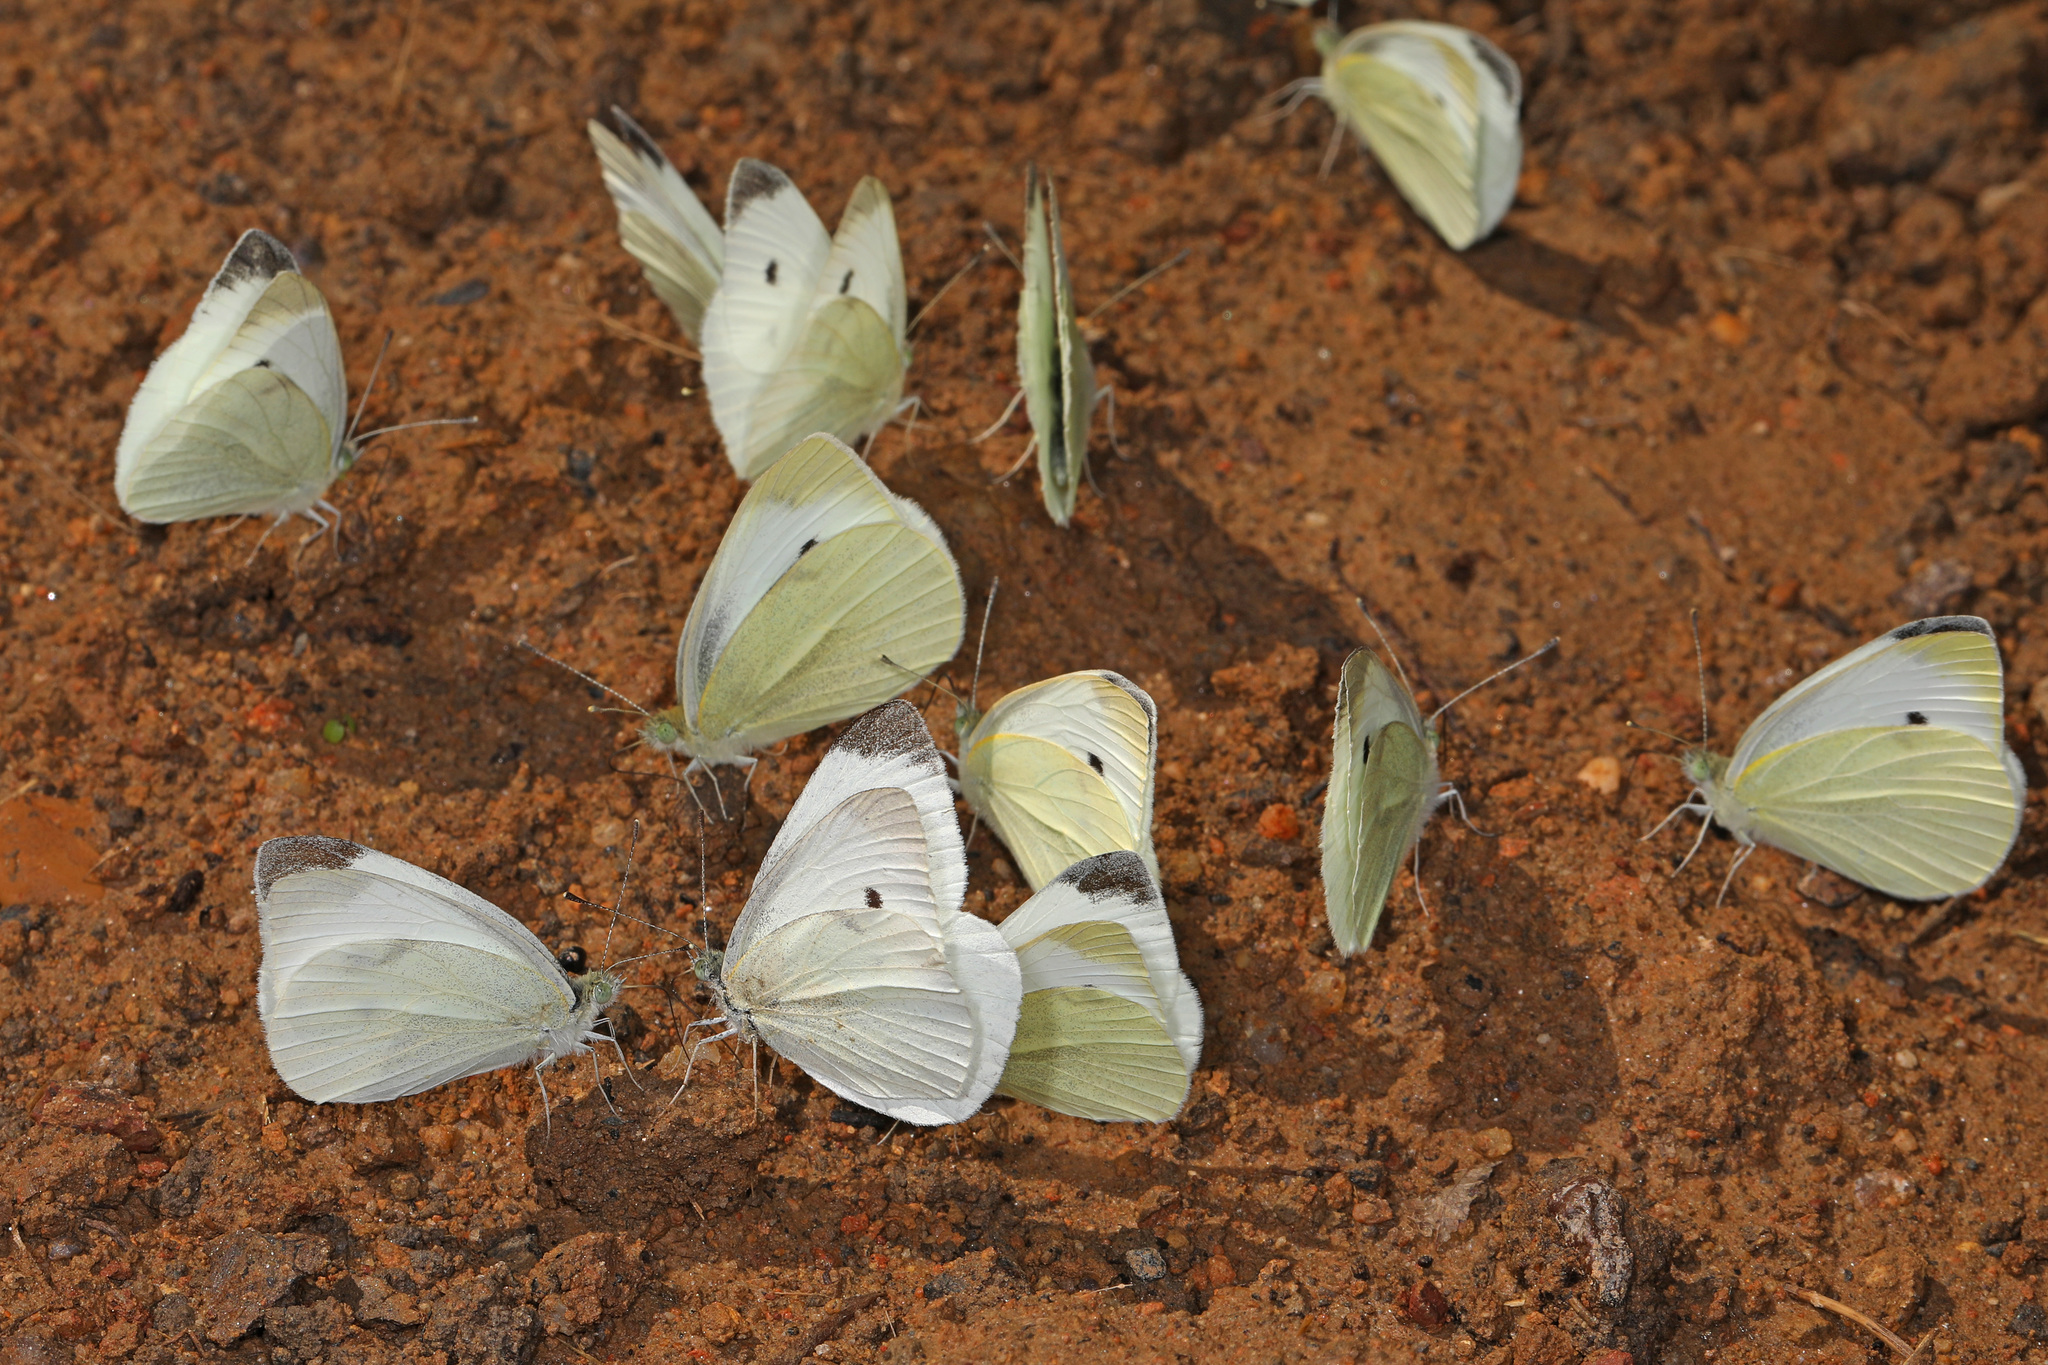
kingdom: Animalia
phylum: Arthropoda
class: Insecta
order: Lepidoptera
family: Pieridae
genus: Pieris
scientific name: Pieris rapae
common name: Small white
